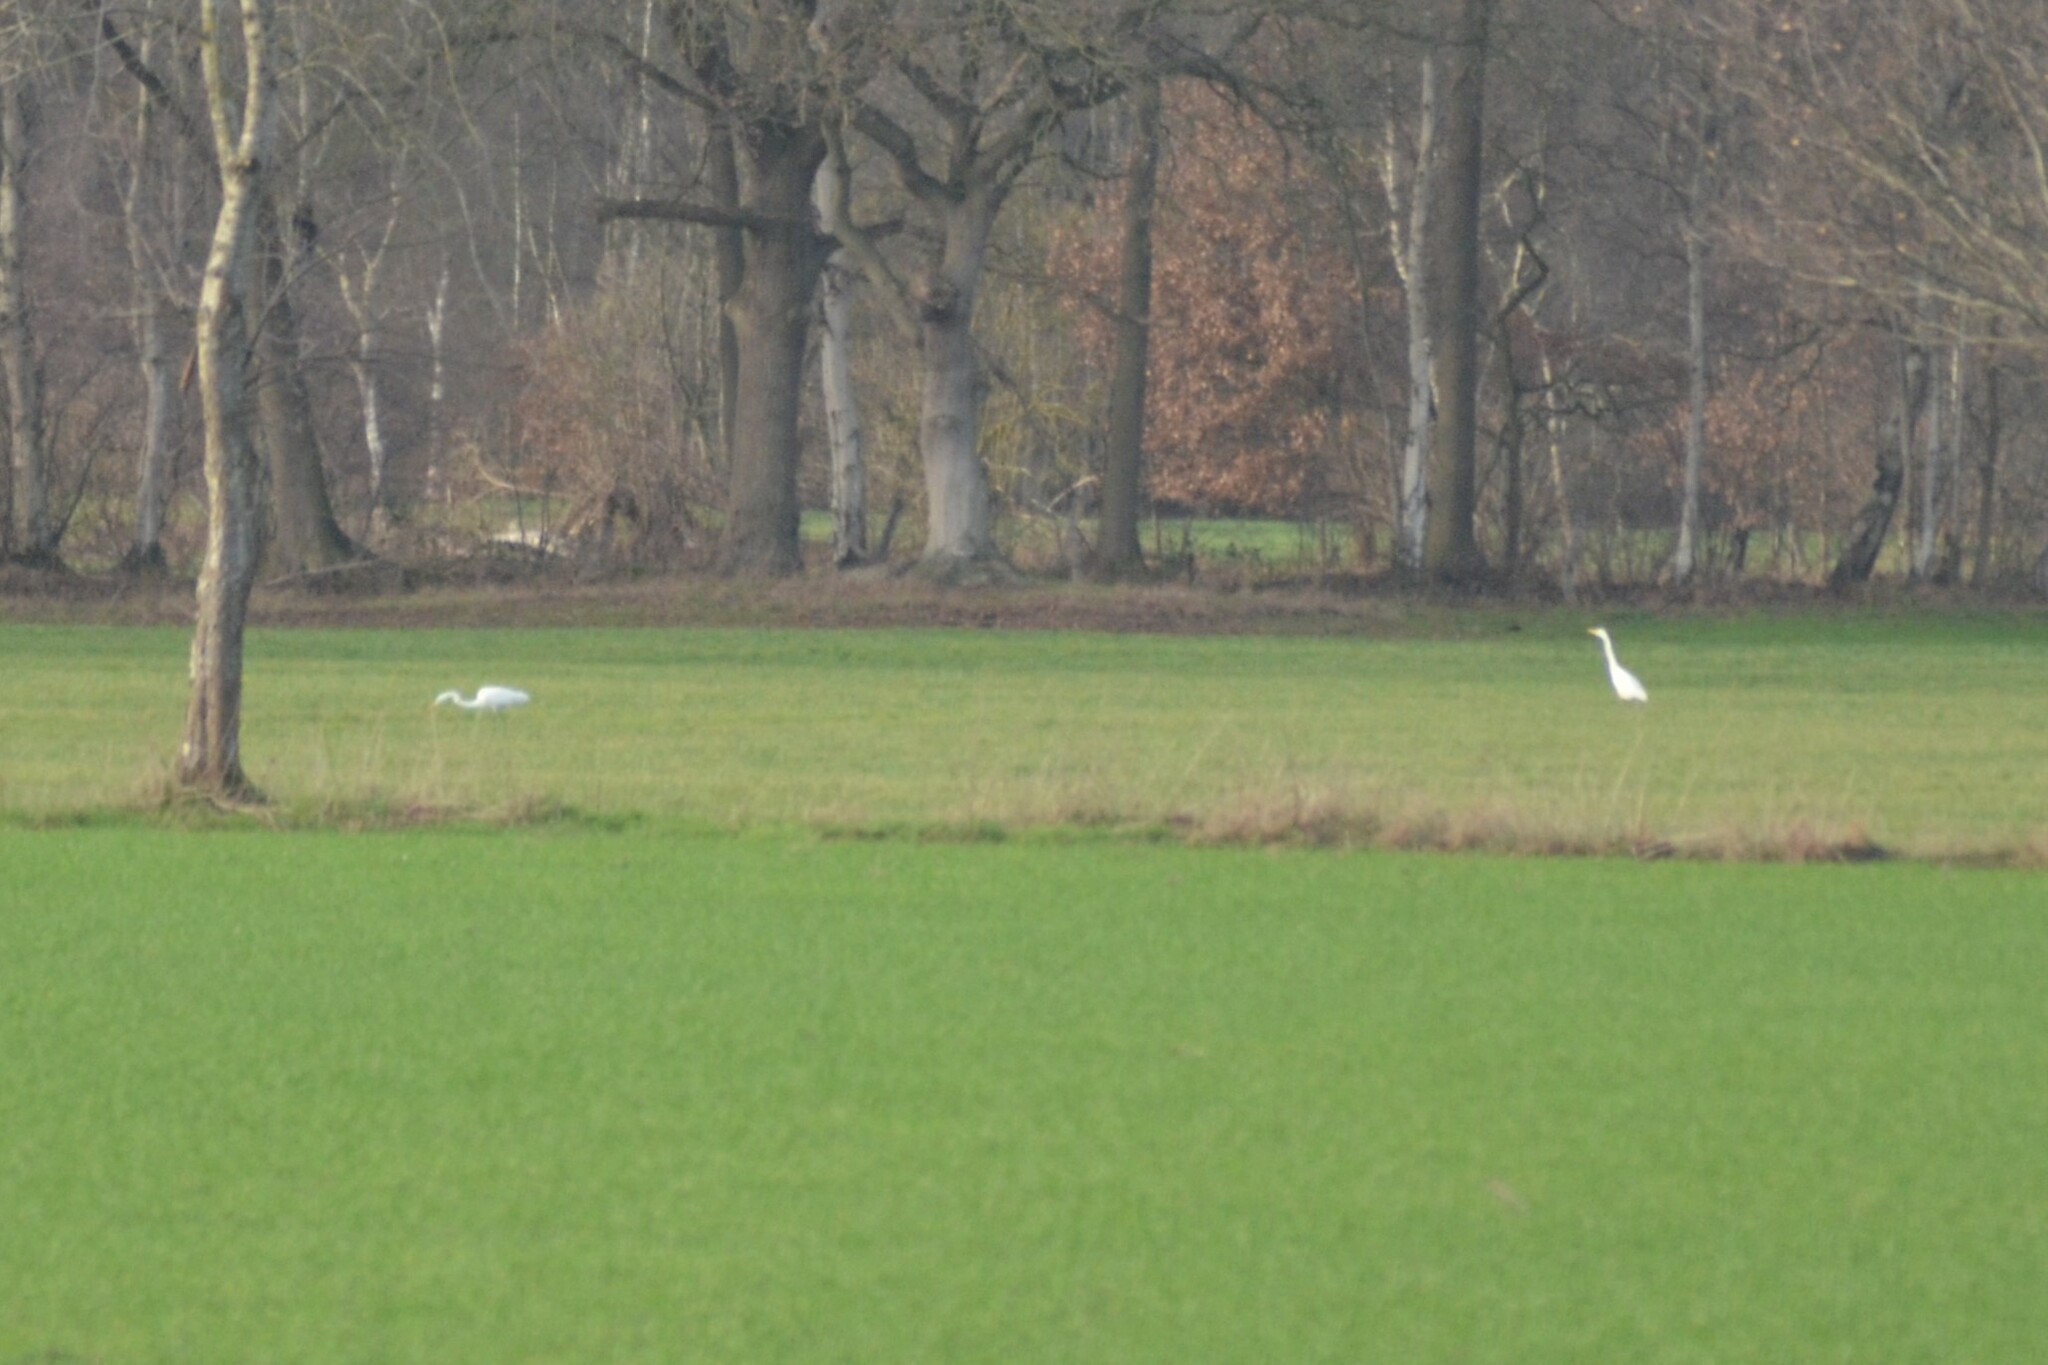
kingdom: Animalia
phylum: Chordata
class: Aves
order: Pelecaniformes
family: Ardeidae
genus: Ardea
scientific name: Ardea alba
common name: Great egret
